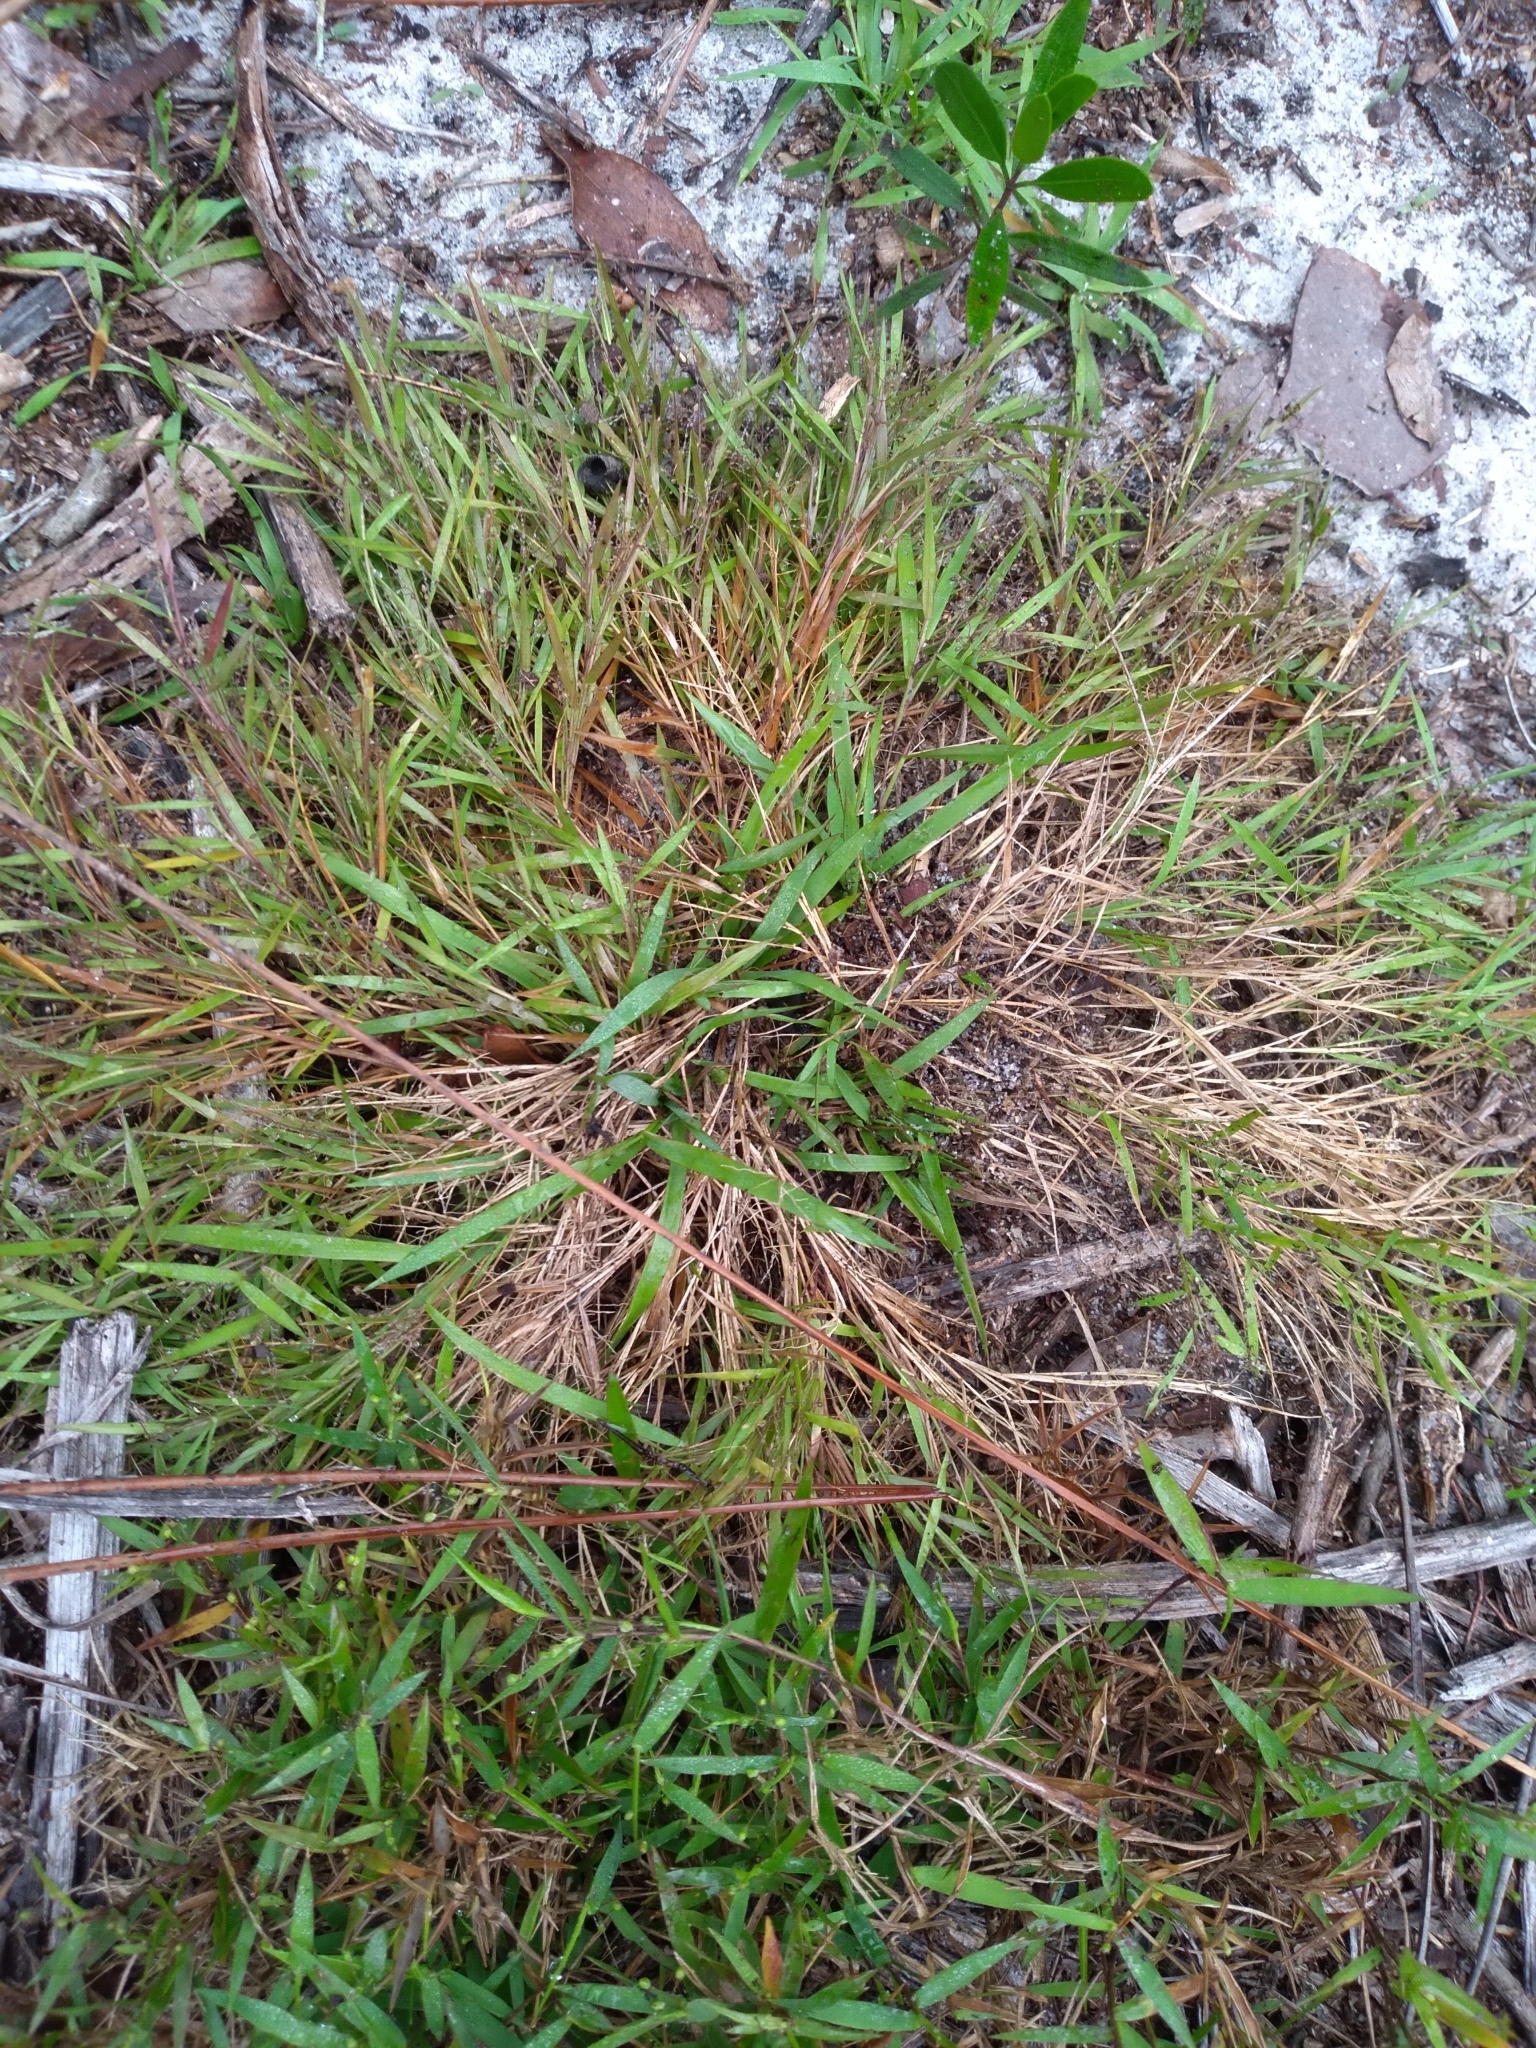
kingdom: Plantae
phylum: Tracheophyta
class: Liliopsida
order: Poales
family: Poaceae
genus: Dichanthelium
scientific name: Dichanthelium chamaelonche
